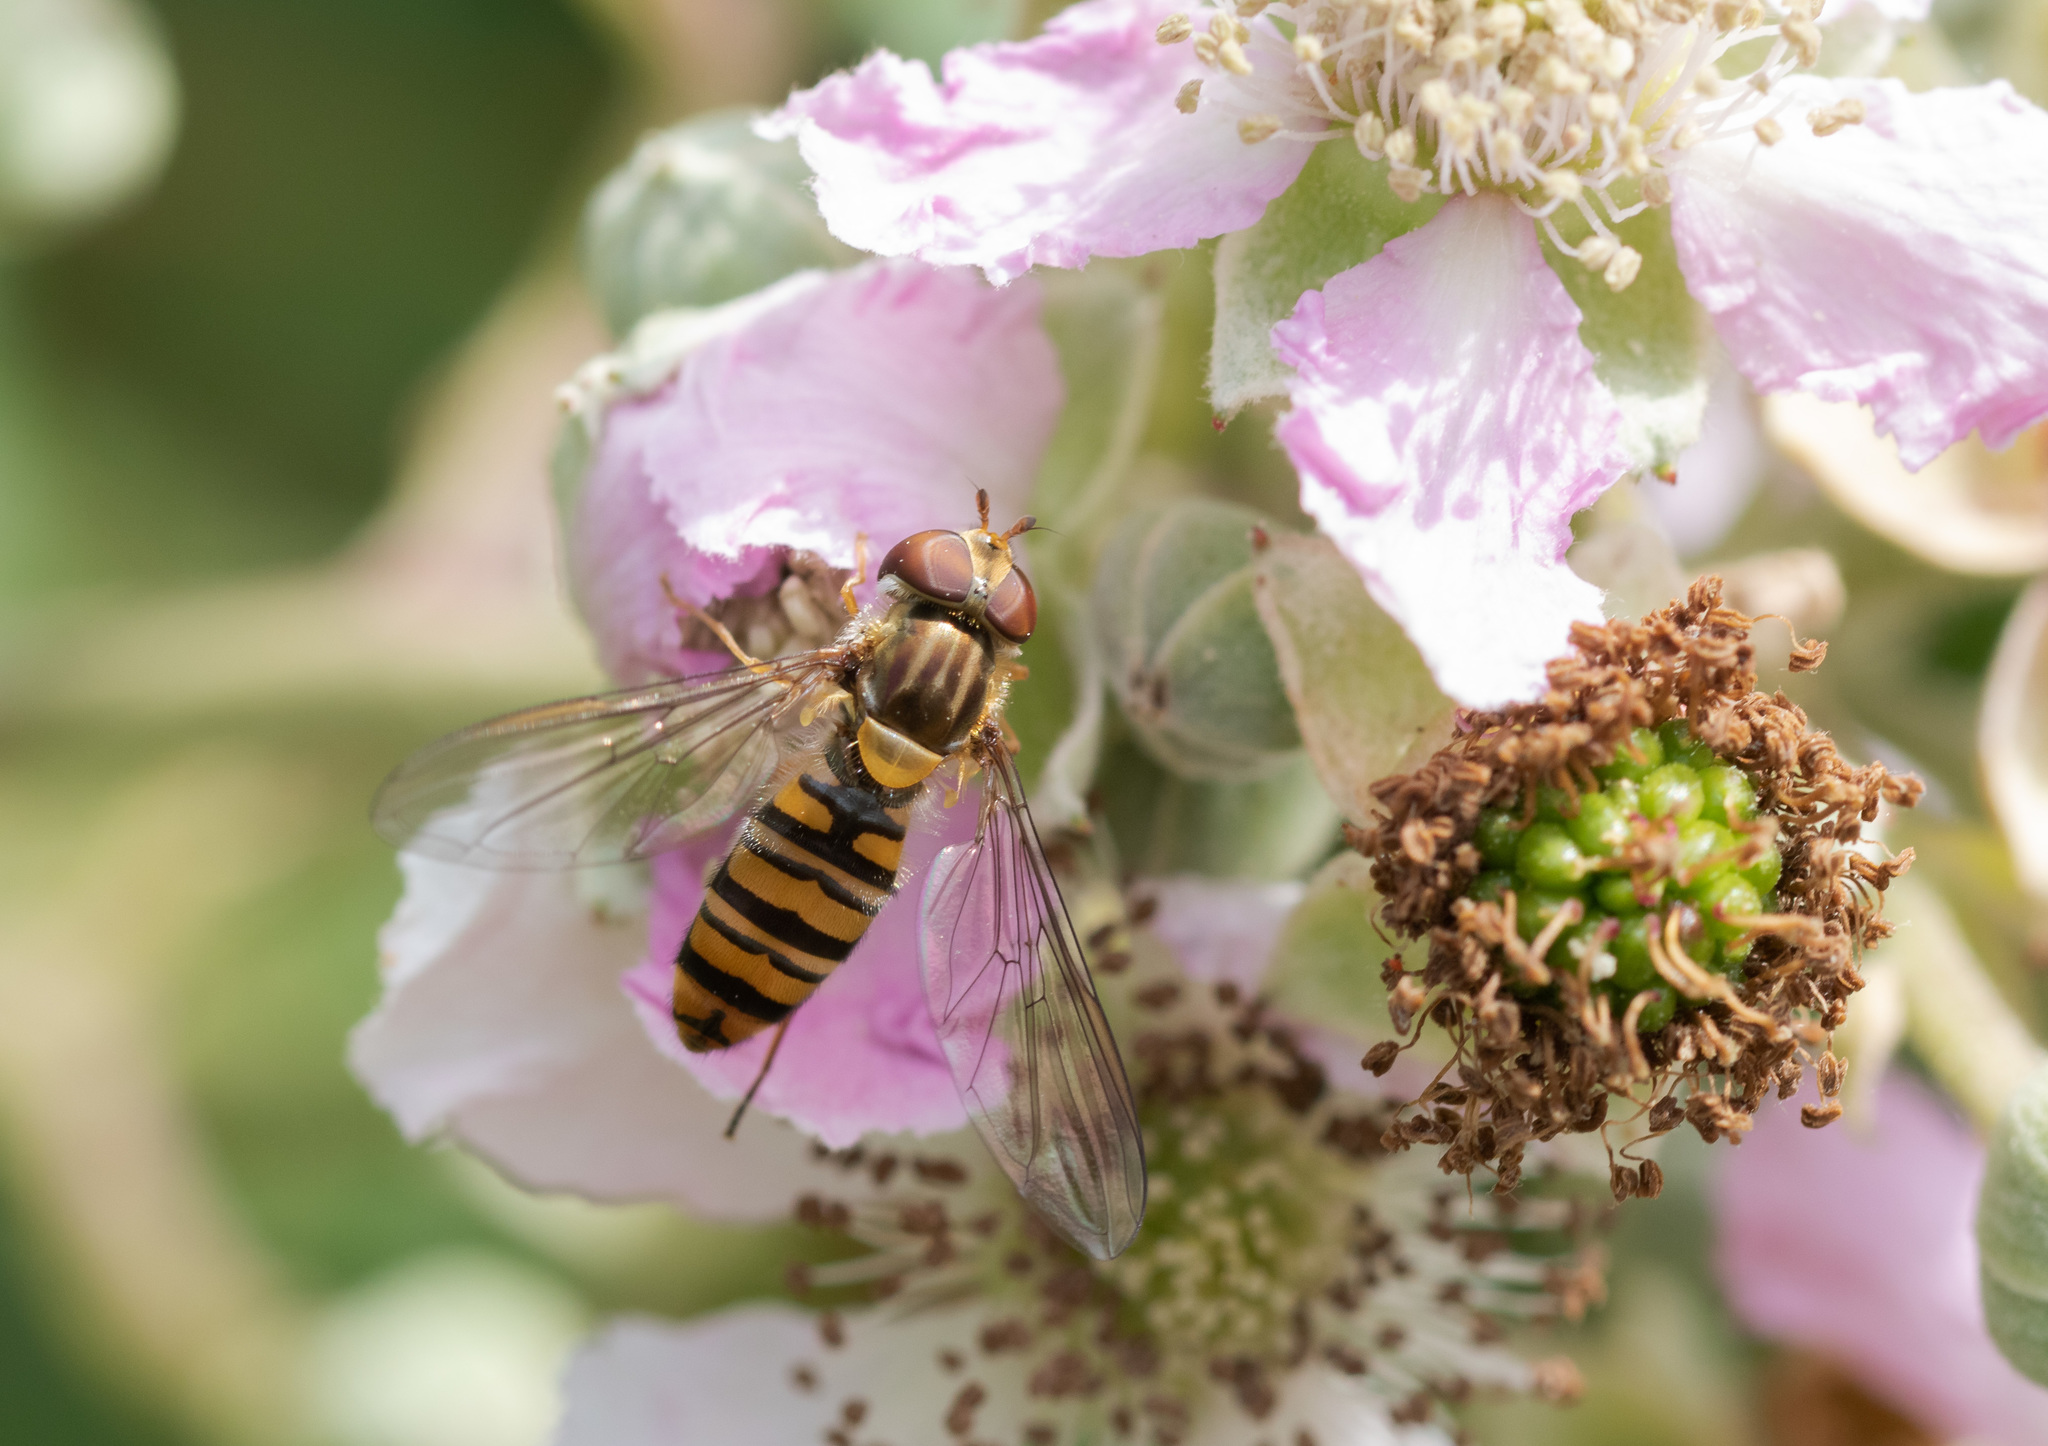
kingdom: Animalia
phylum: Arthropoda
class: Insecta
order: Diptera
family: Syrphidae
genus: Episyrphus
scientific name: Episyrphus balteatus
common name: Marmalade hoverfly
